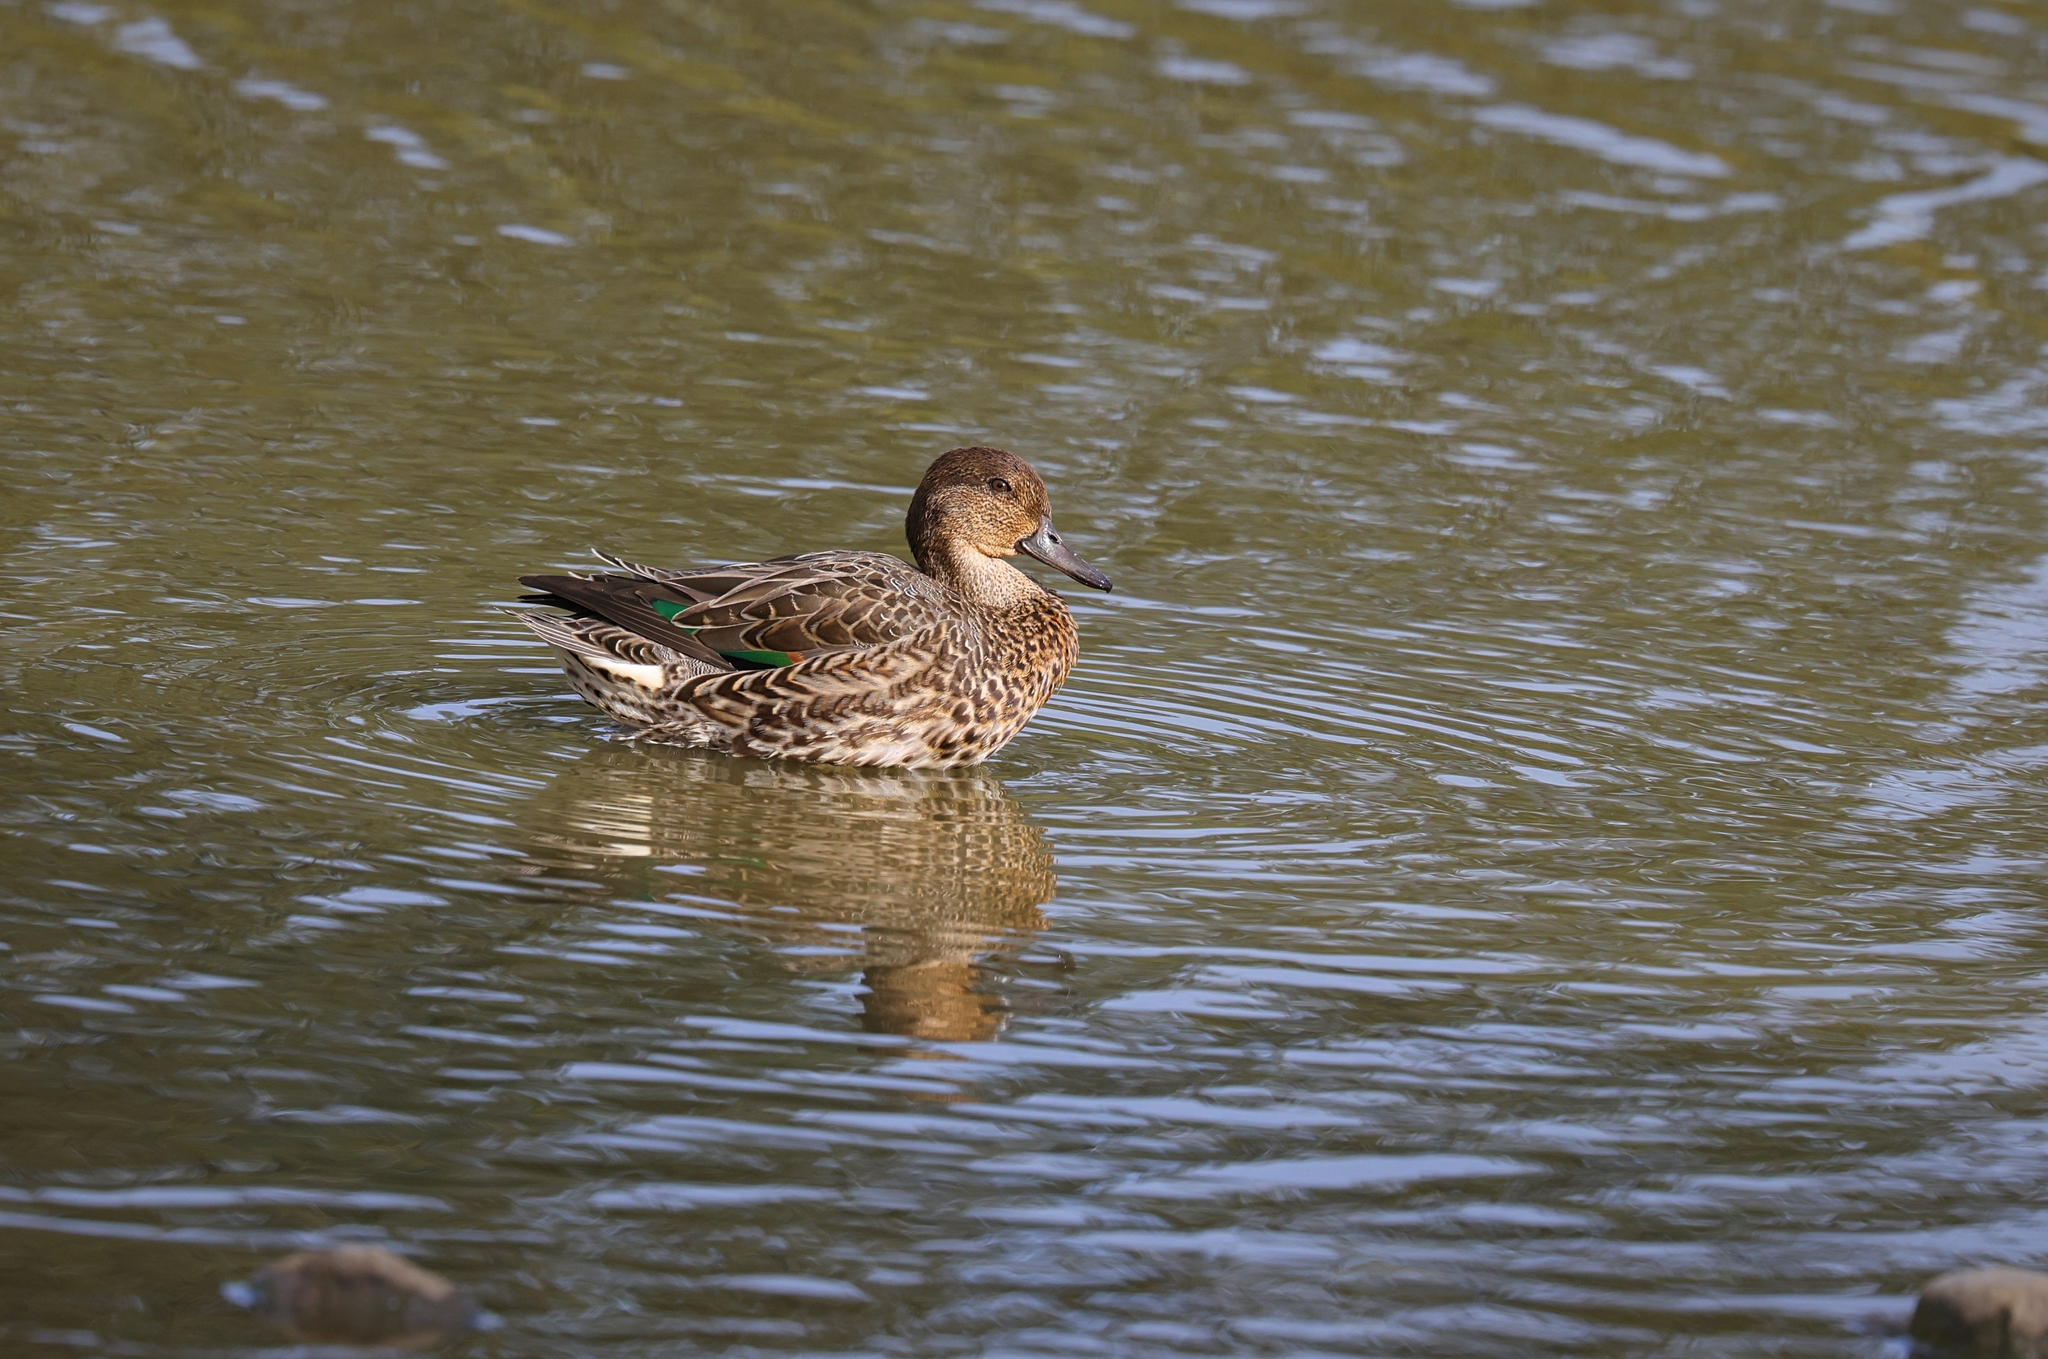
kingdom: Animalia
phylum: Chordata
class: Aves
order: Anseriformes
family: Anatidae
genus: Anas
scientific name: Anas crecca
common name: Eurasian teal
